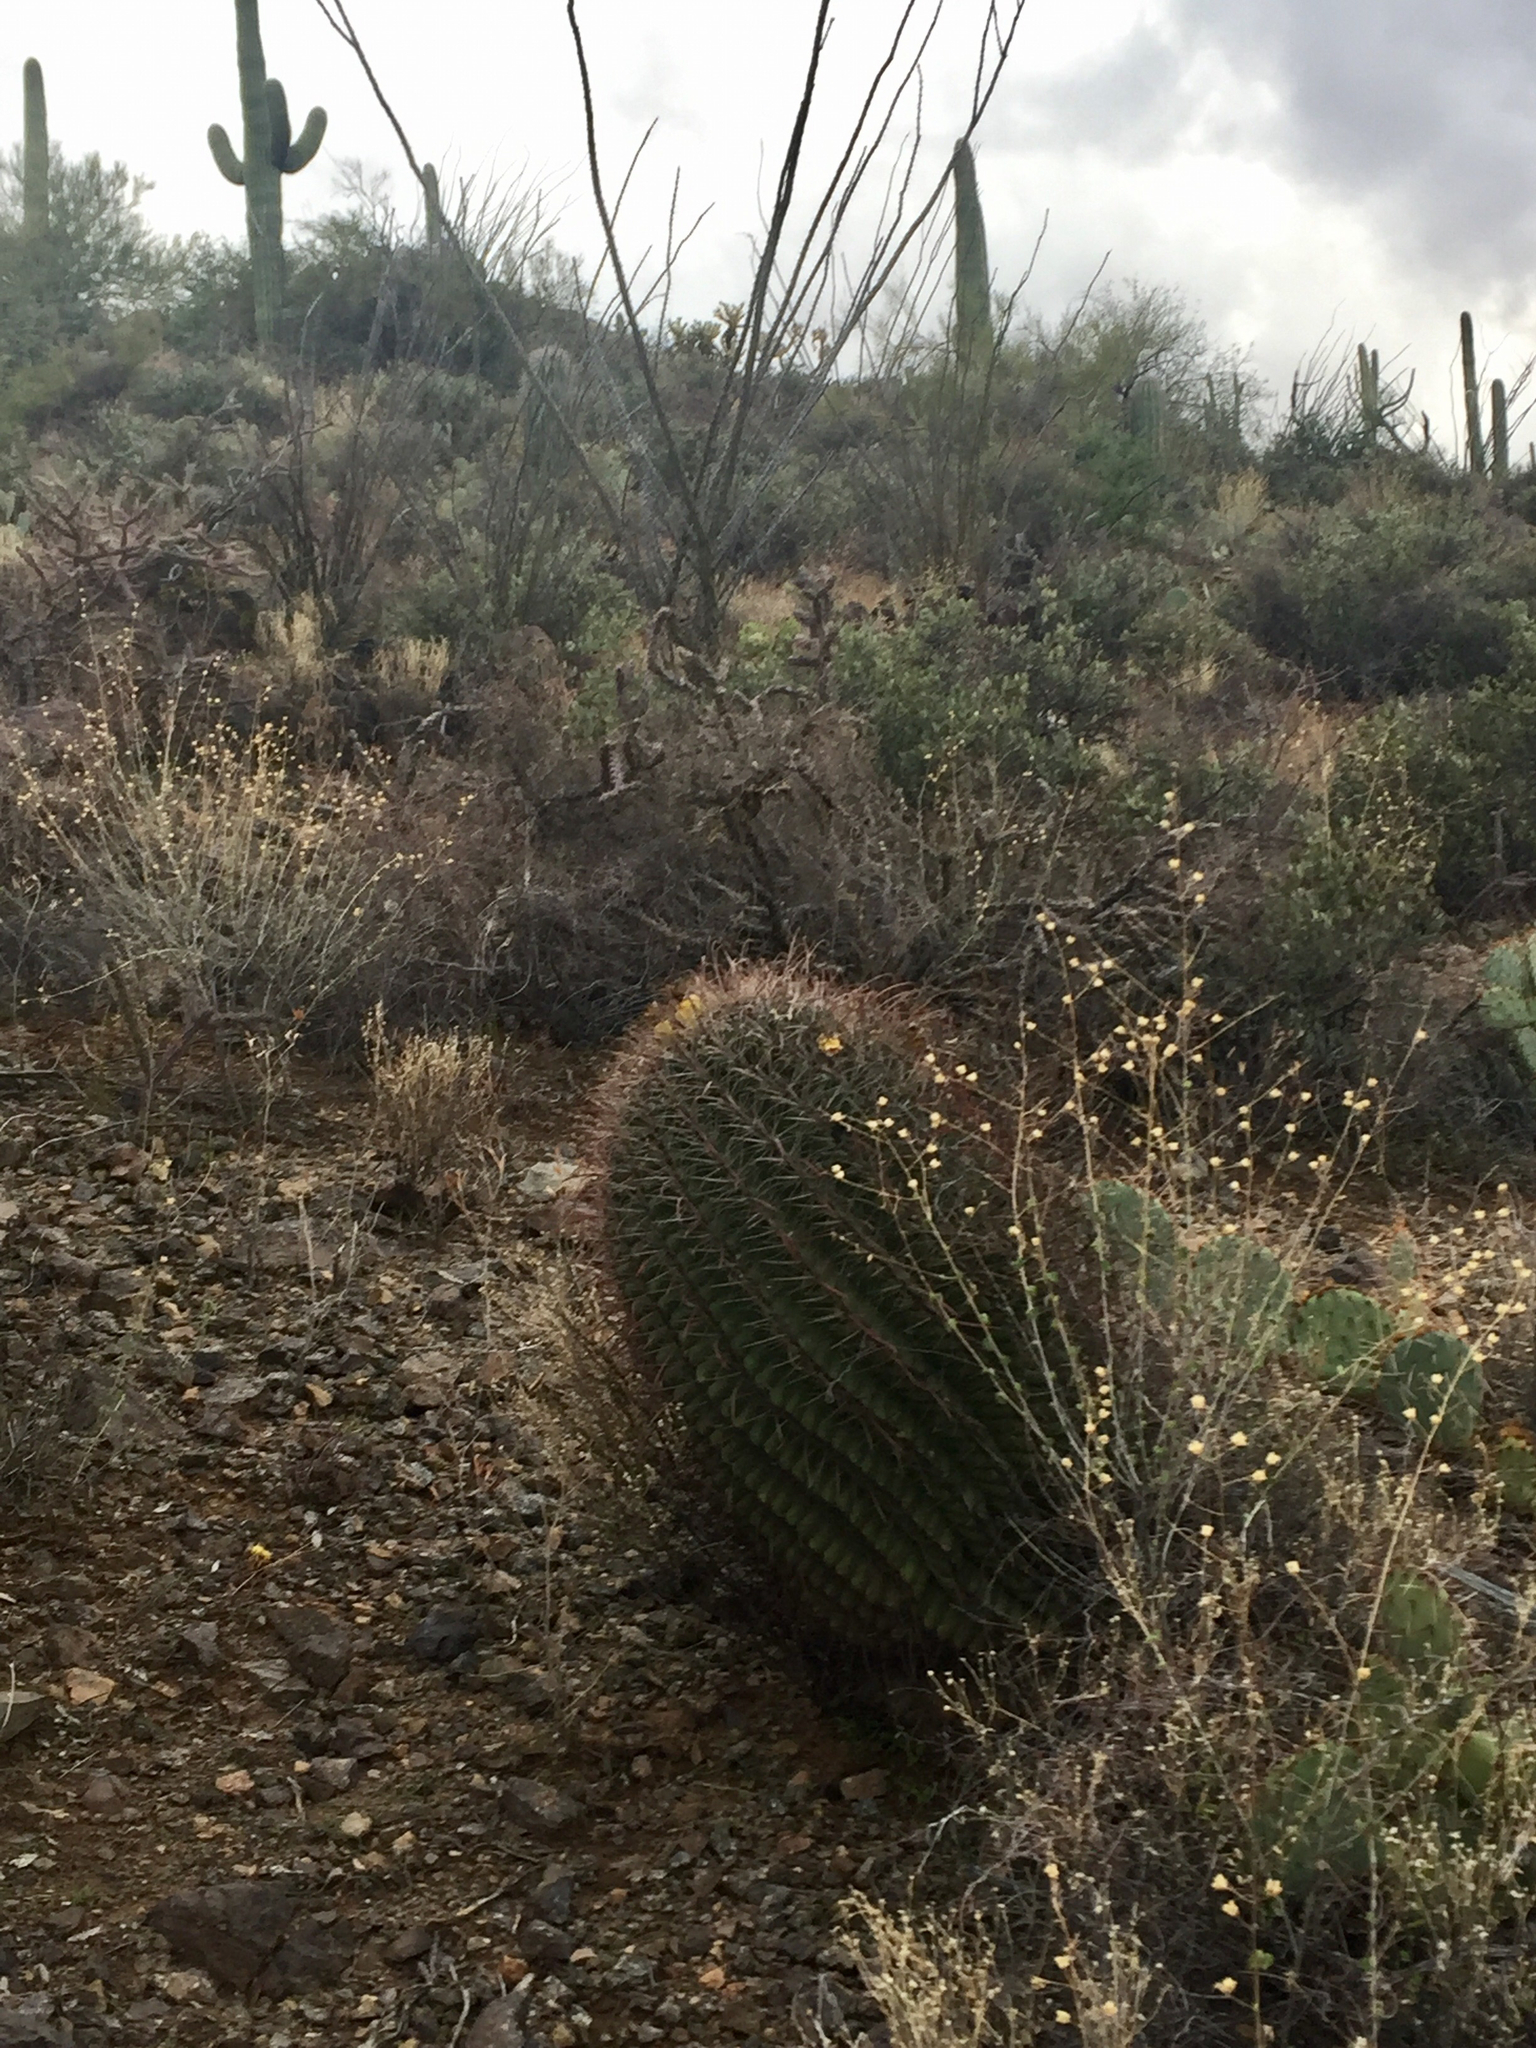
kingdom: Plantae
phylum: Tracheophyta
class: Magnoliopsida
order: Caryophyllales
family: Cactaceae
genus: Ferocactus
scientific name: Ferocactus wislizeni
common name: Candy barrel cactus
